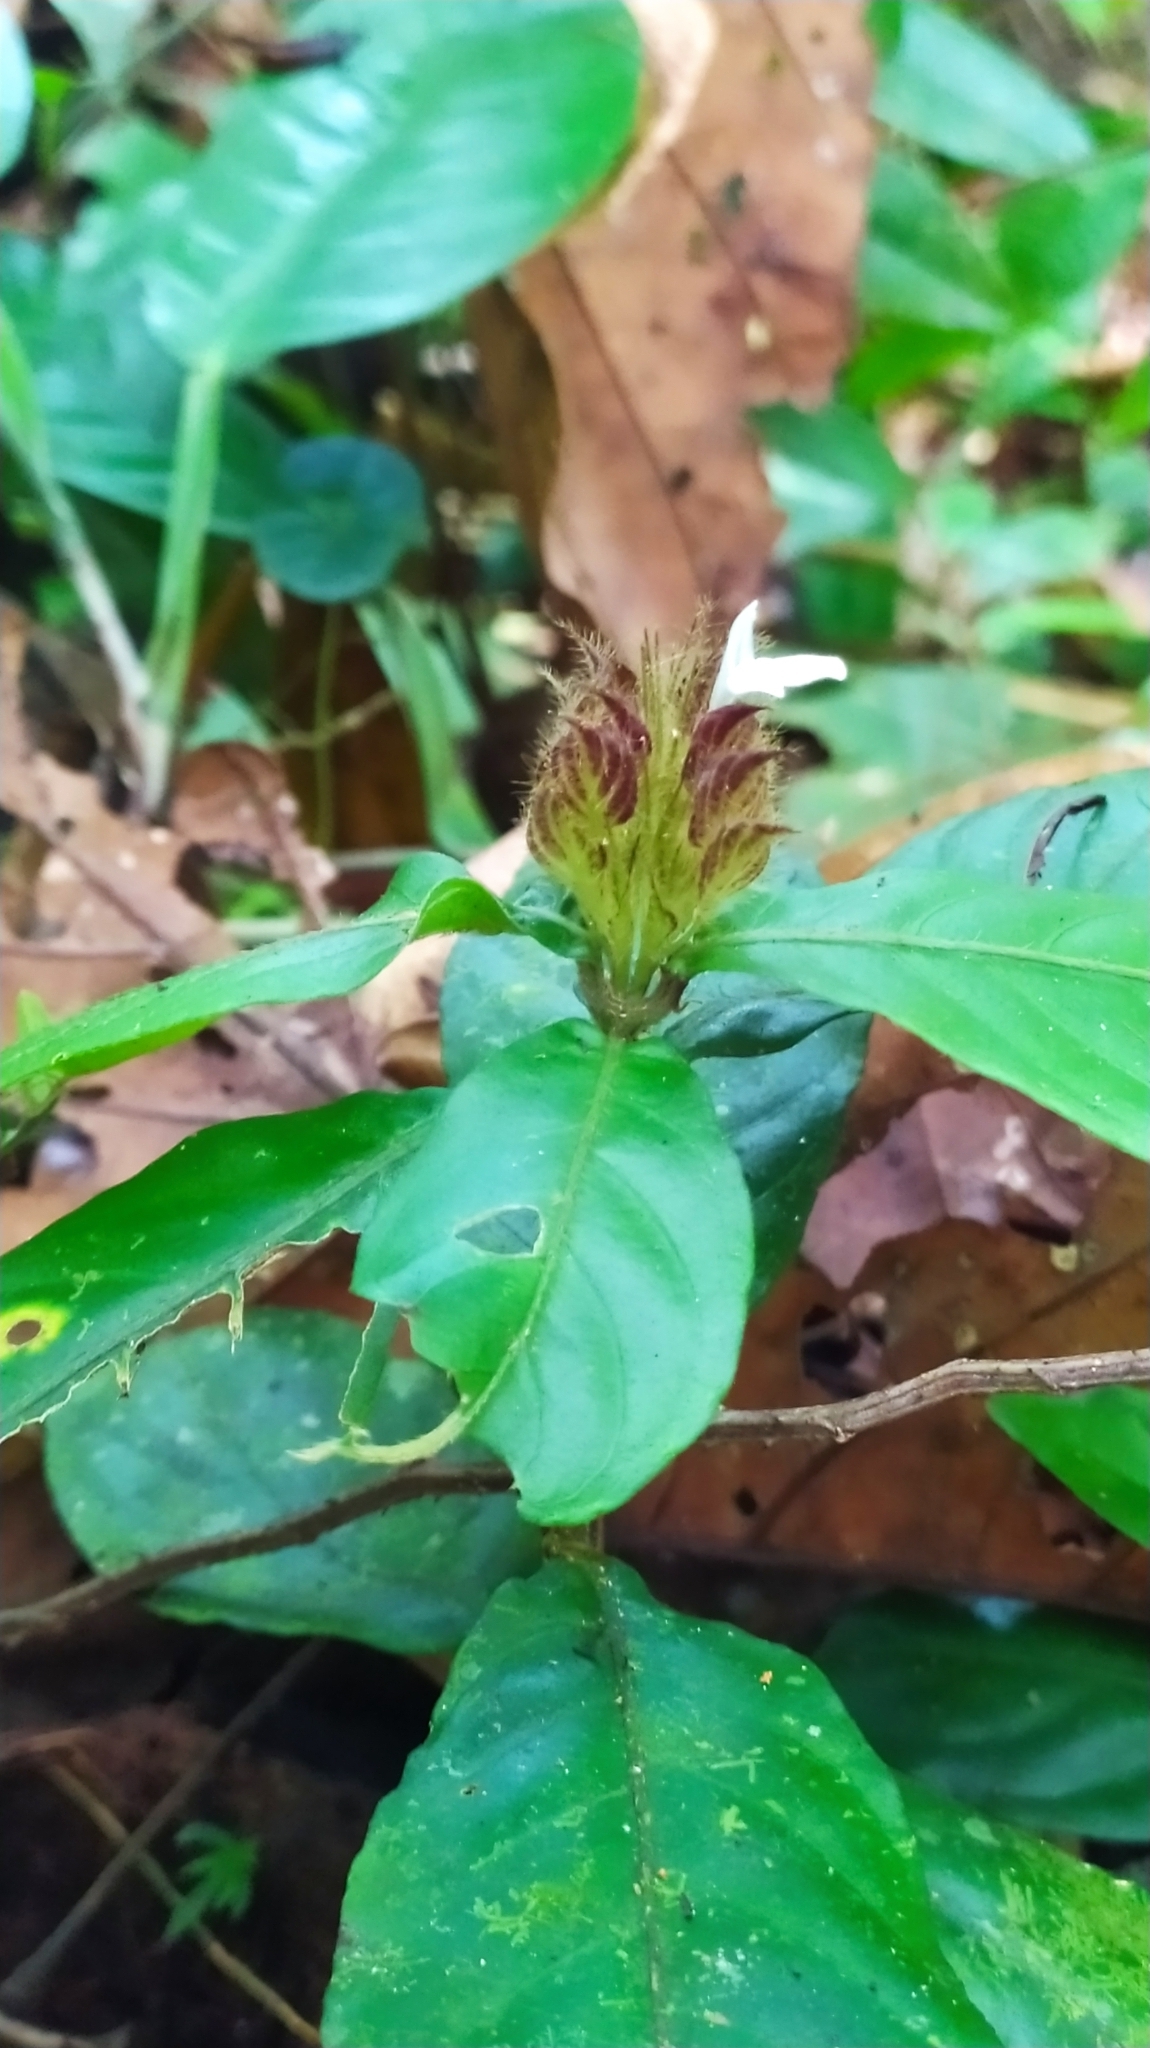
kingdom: Plantae
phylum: Tracheophyta
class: Magnoliopsida
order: Lamiales
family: Acanthaceae
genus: Justicia
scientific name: Justicia oldemanii
